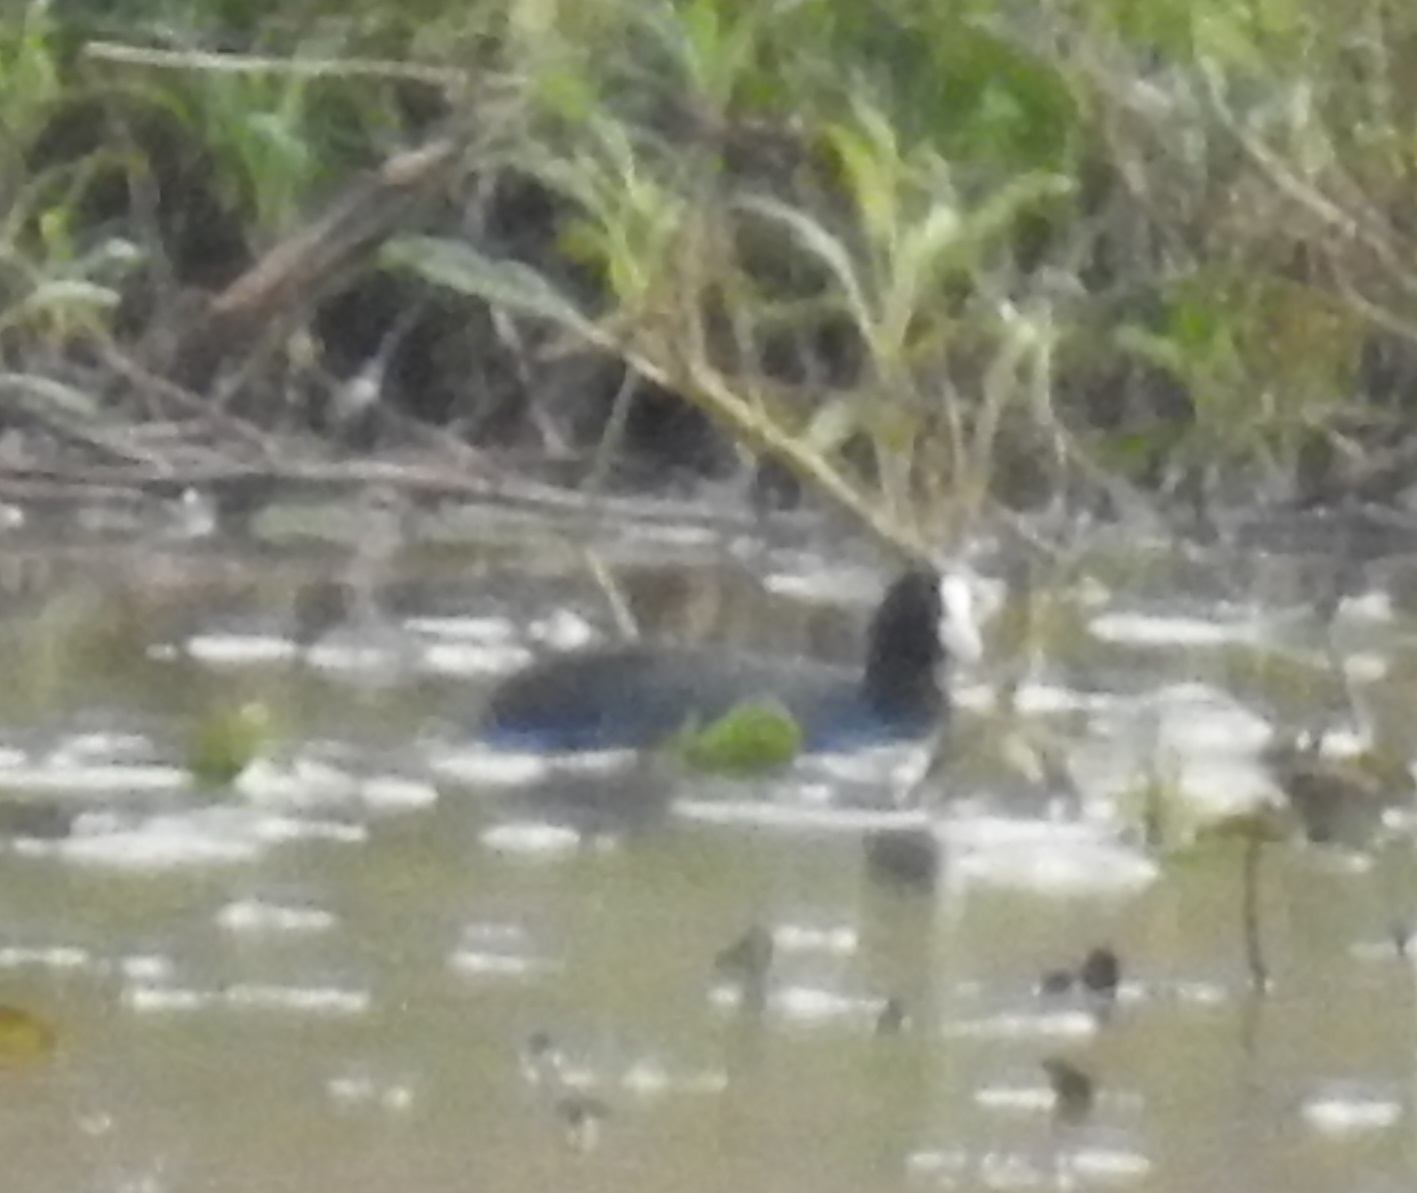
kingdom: Animalia
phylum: Chordata
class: Aves
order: Gruiformes
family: Rallidae
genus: Fulica
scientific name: Fulica atra
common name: Eurasian coot
